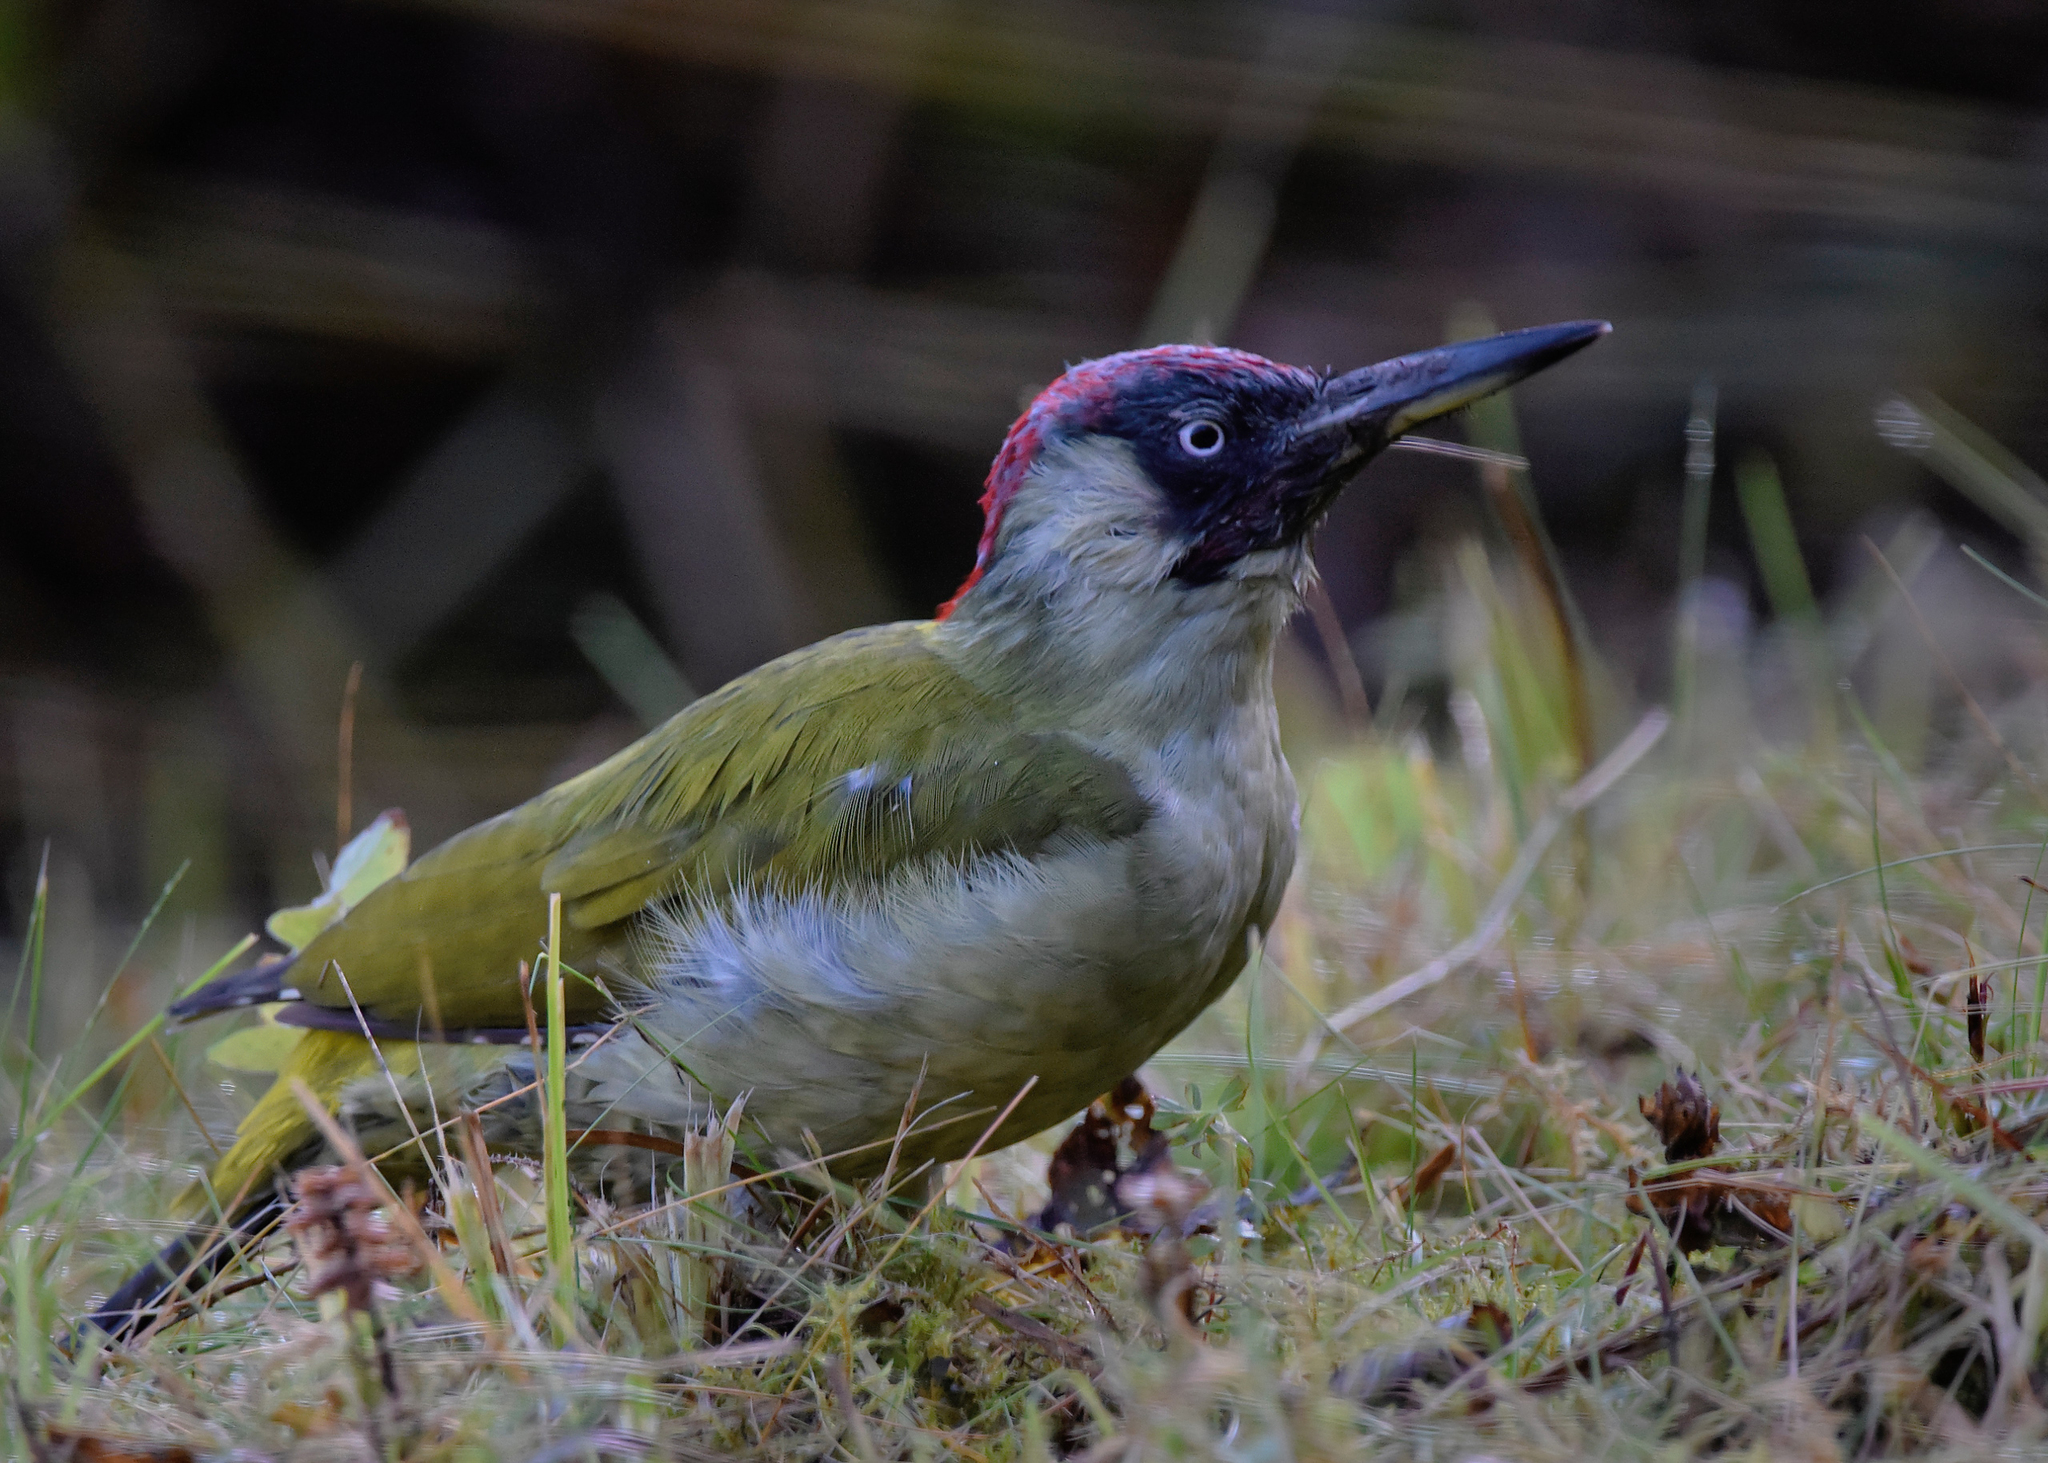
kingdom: Animalia
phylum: Chordata
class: Aves
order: Piciformes
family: Picidae
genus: Picus
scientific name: Picus viridis
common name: European green woodpecker
